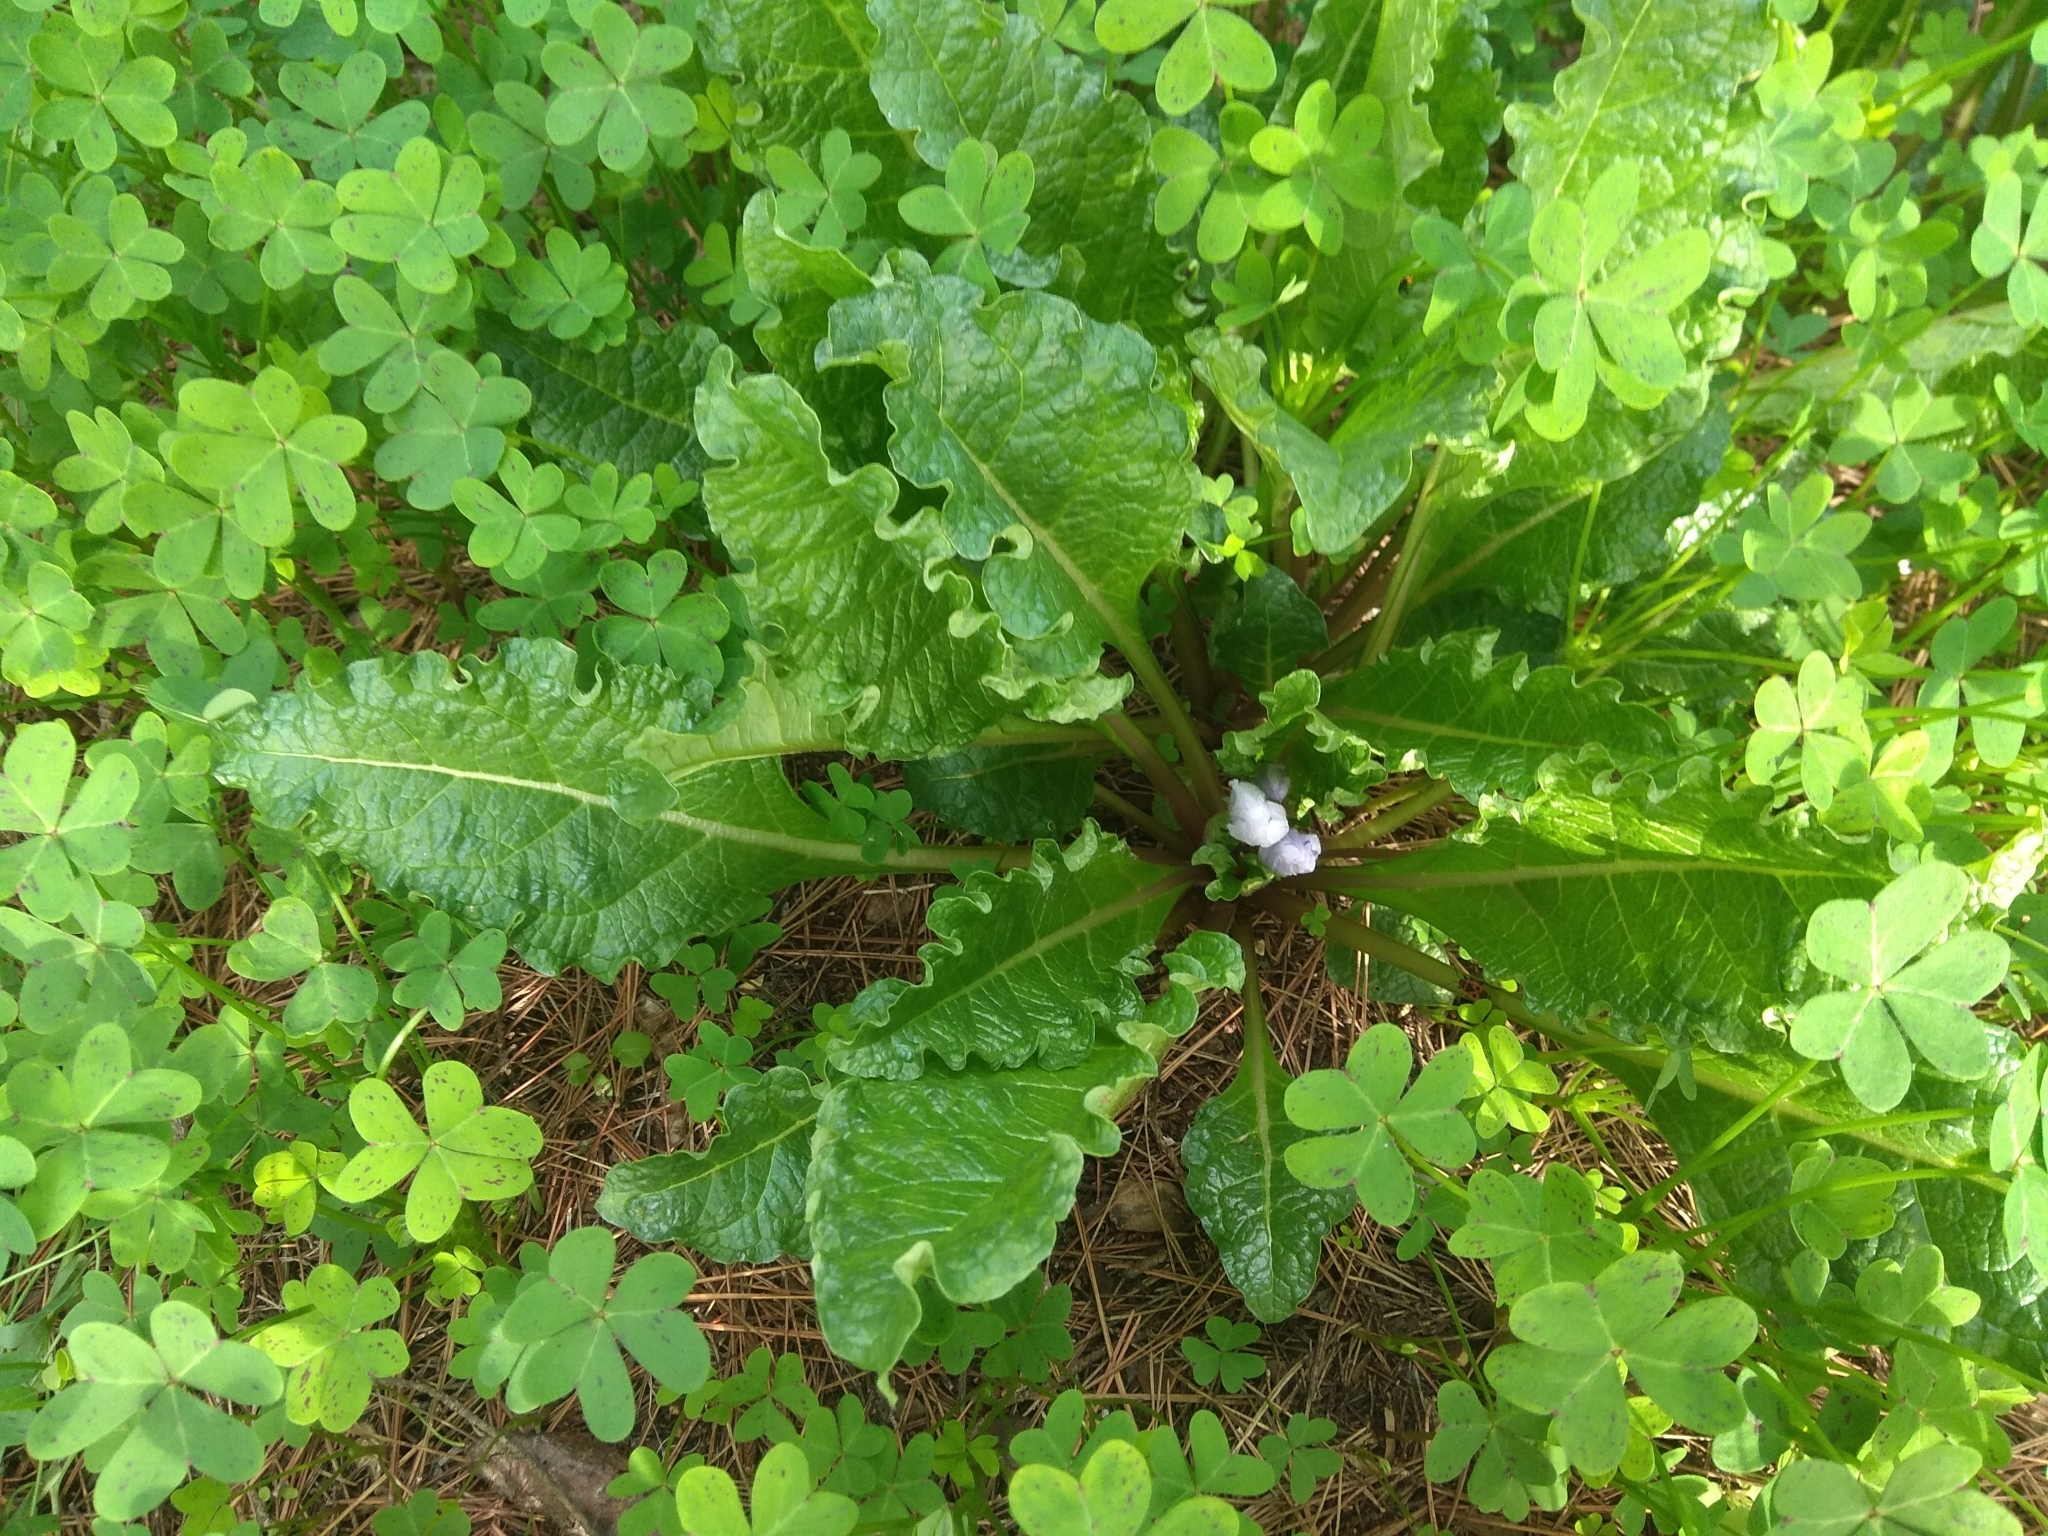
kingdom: Plantae
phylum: Tracheophyta
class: Magnoliopsida
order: Solanales
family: Solanaceae
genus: Mandragora
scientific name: Mandragora officinarum
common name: Mandrake
